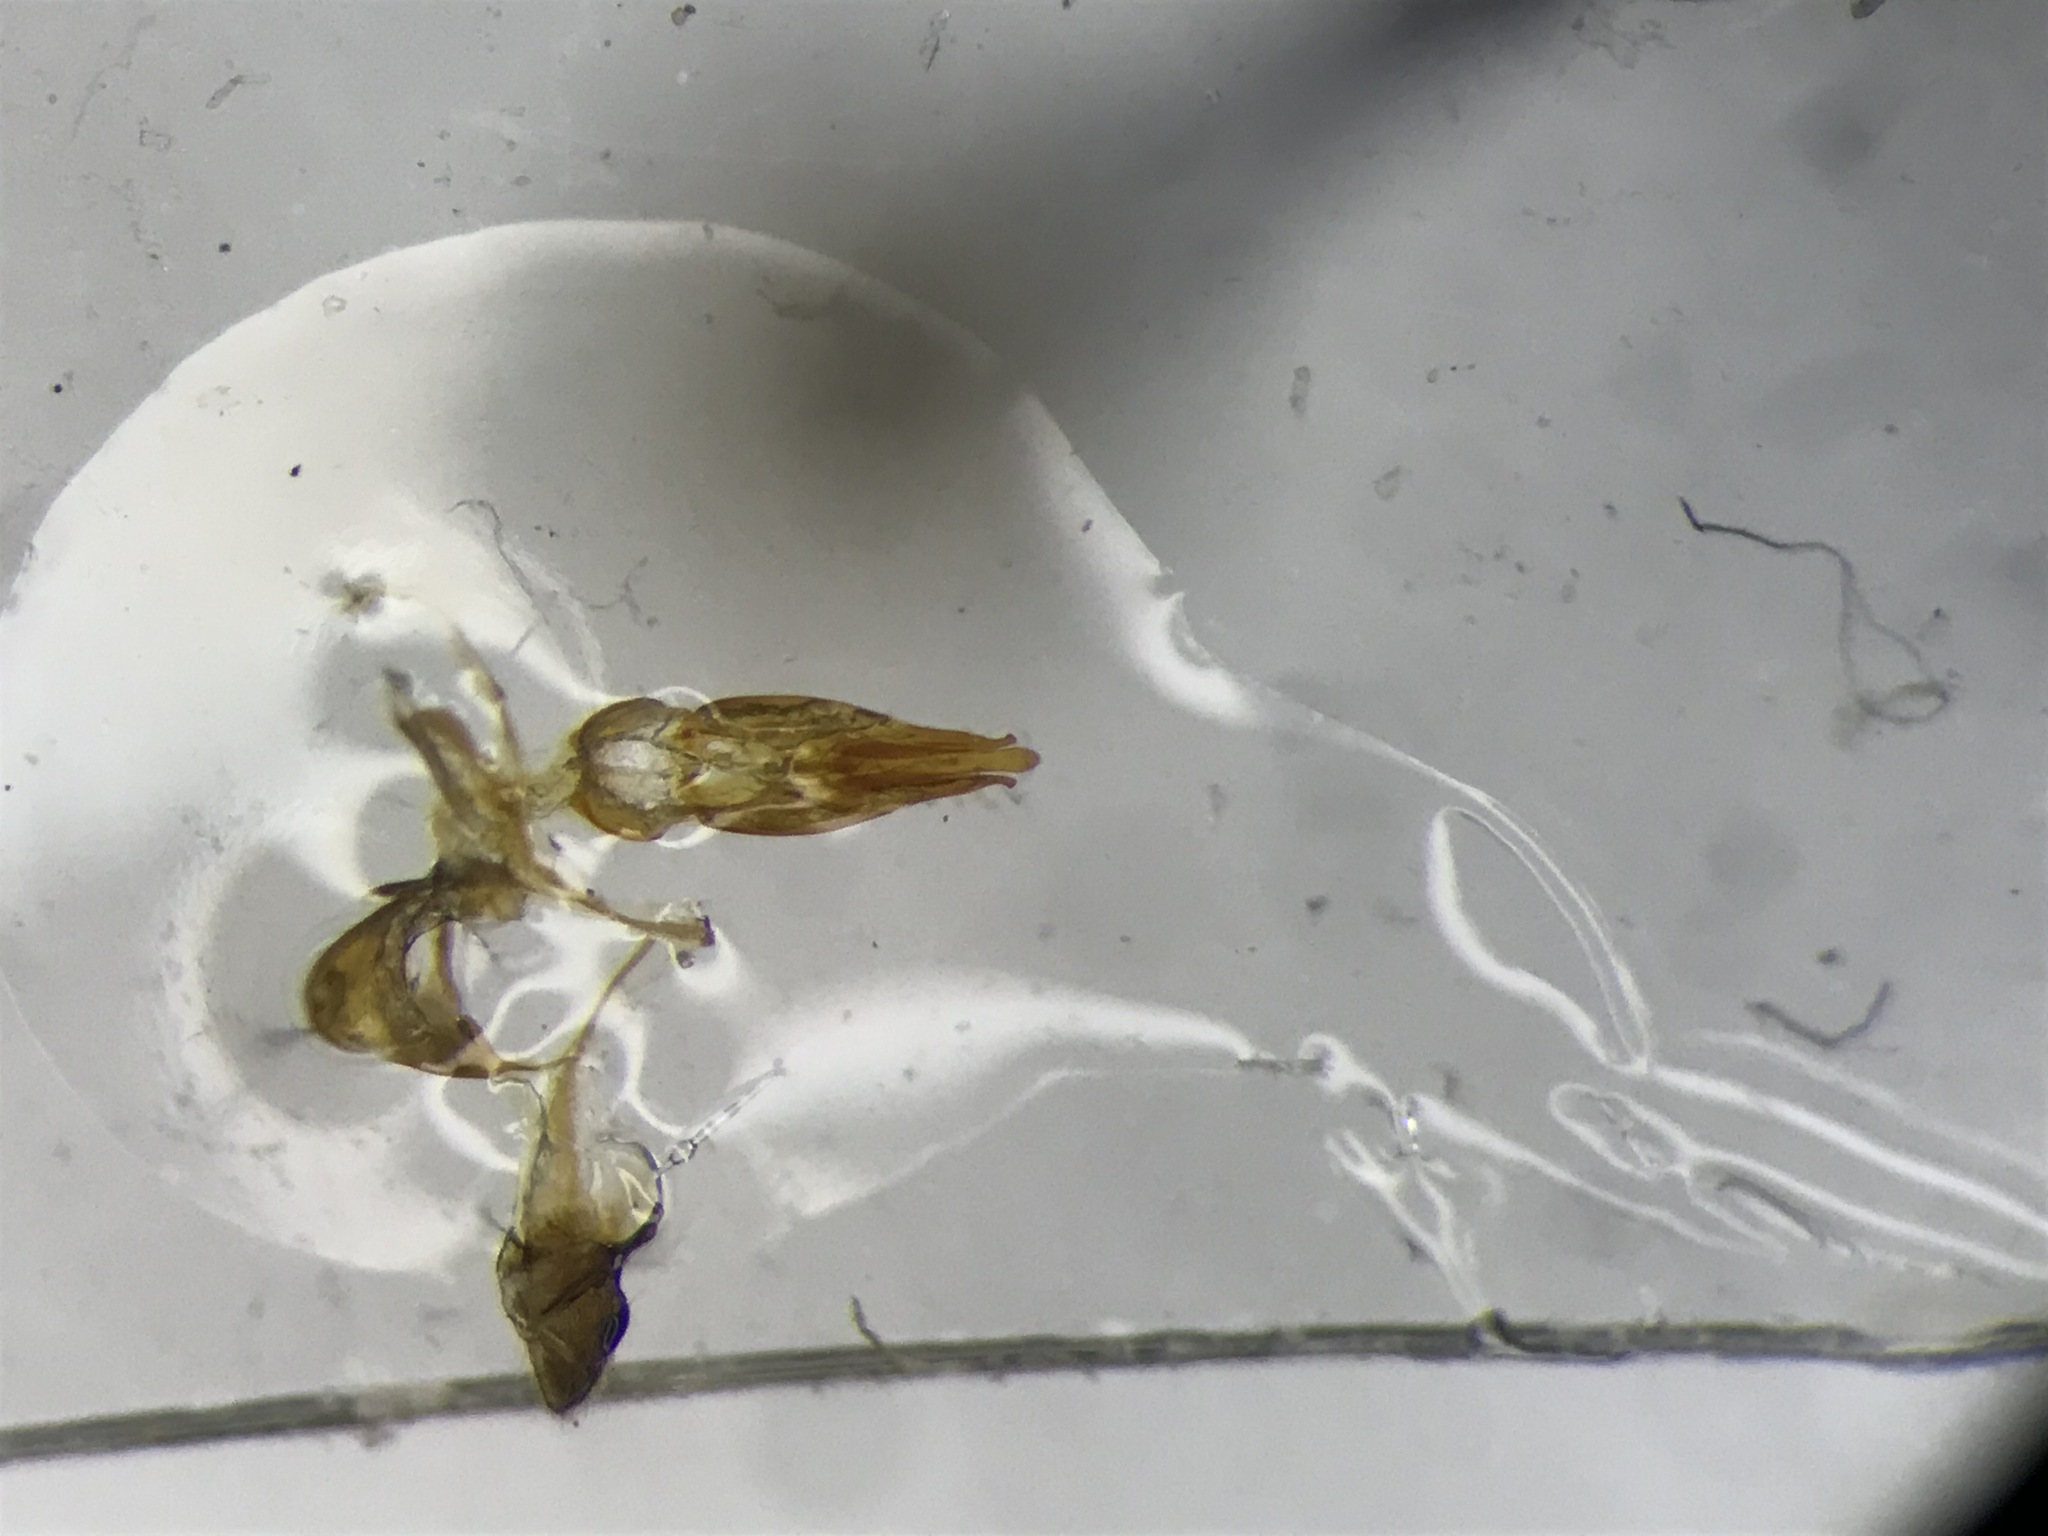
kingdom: Animalia
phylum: Arthropoda
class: Insecta
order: Coleoptera
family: Elateridae
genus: Cardiophorus
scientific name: Cardiophorus convexus
